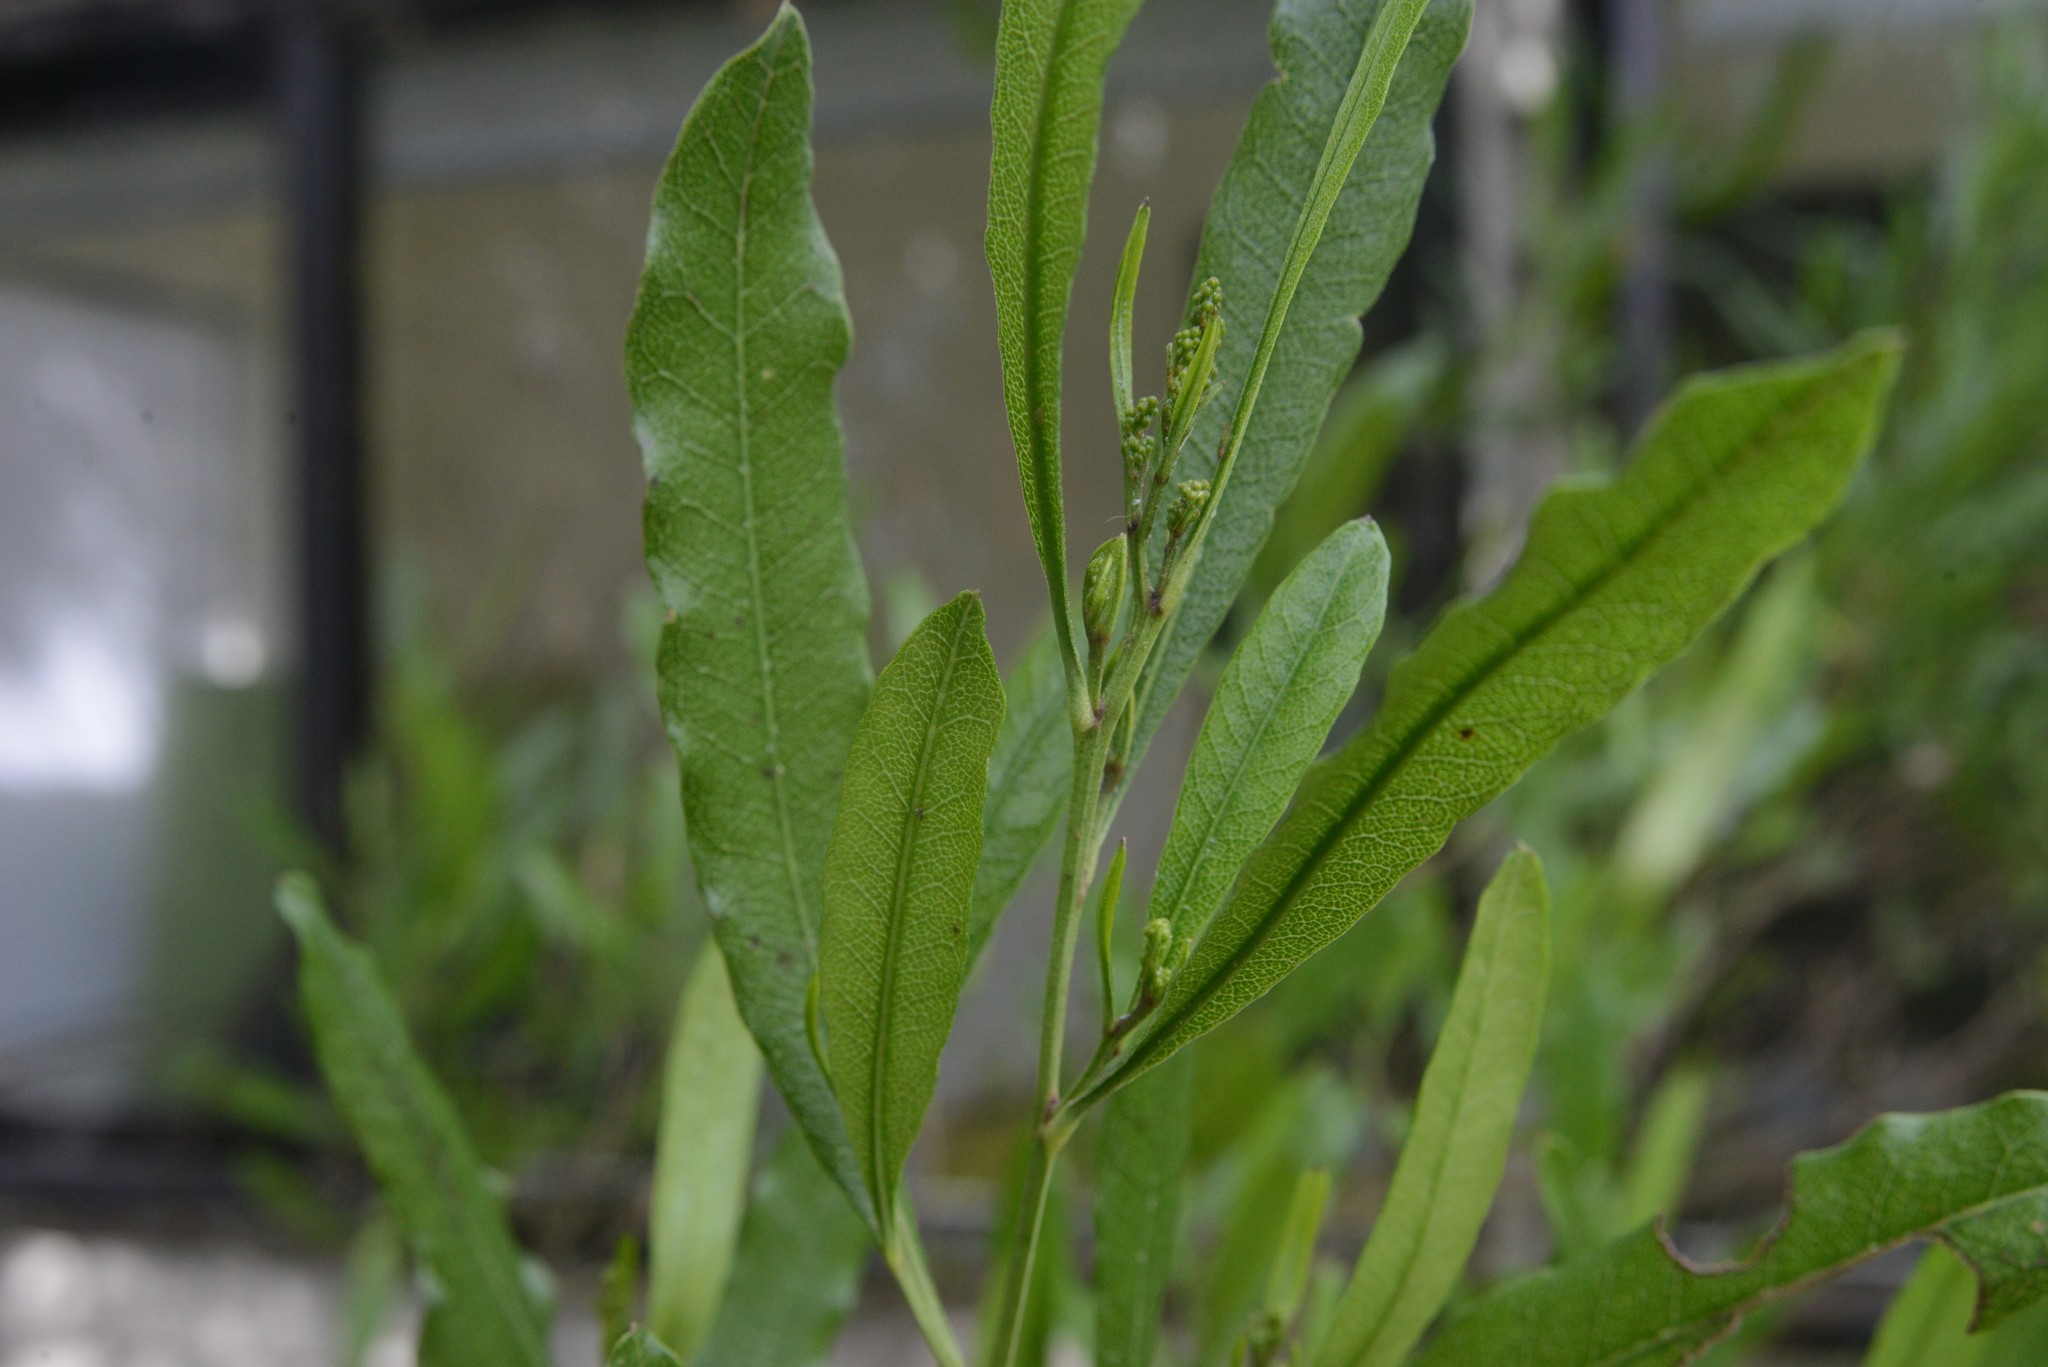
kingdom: Plantae
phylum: Tracheophyta
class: Magnoliopsida
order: Sapindales
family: Sapindaceae
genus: Dodonaea
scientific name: Dodonaea viscosa
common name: Hopbush
